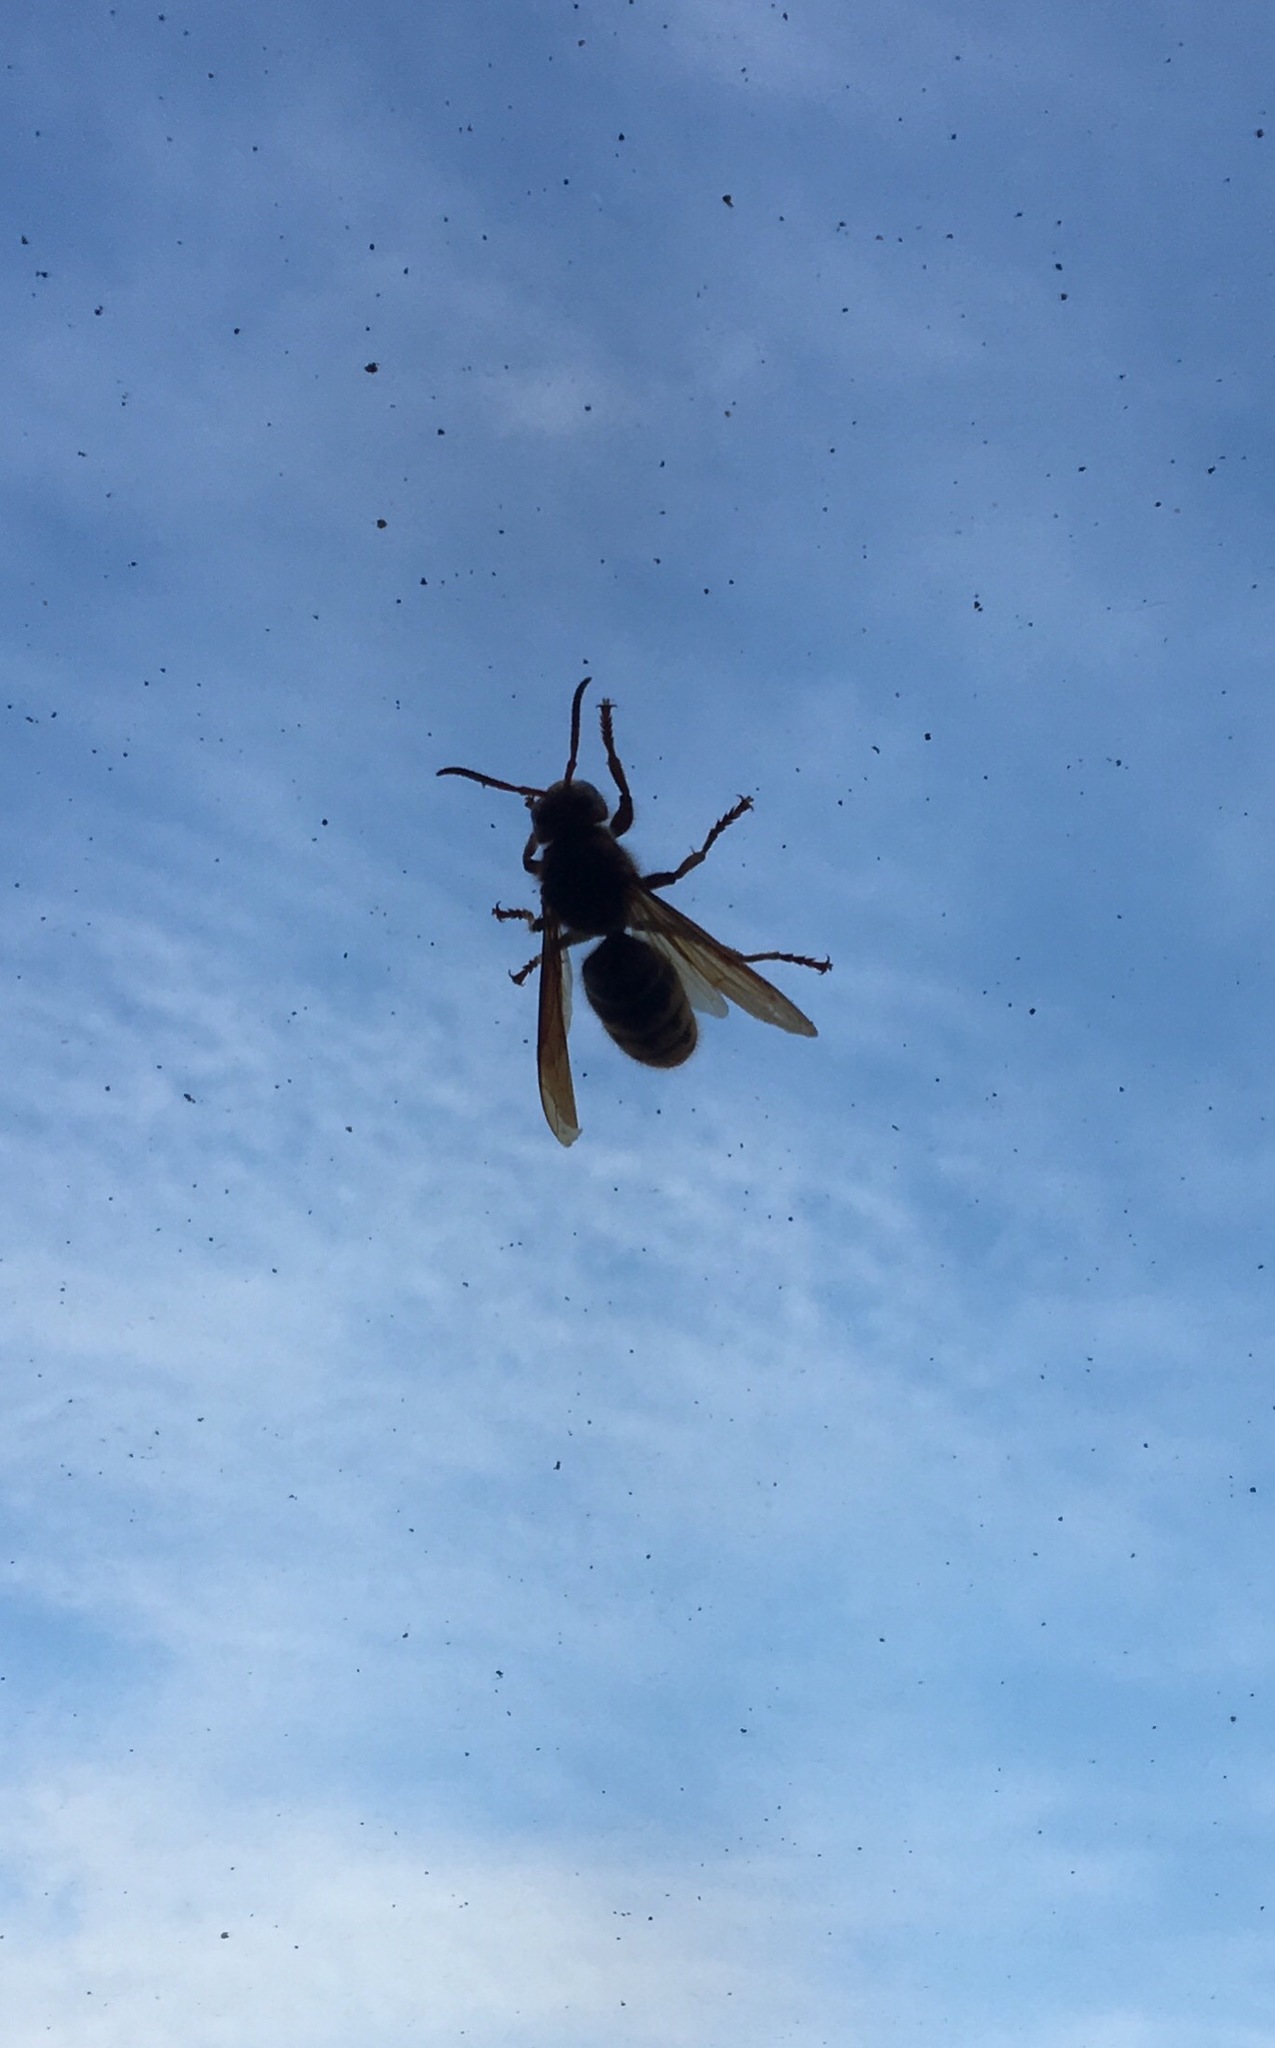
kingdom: Animalia
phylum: Arthropoda
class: Insecta
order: Hymenoptera
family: Vespidae
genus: Vespa
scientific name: Vespa crabro
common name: Hornet
